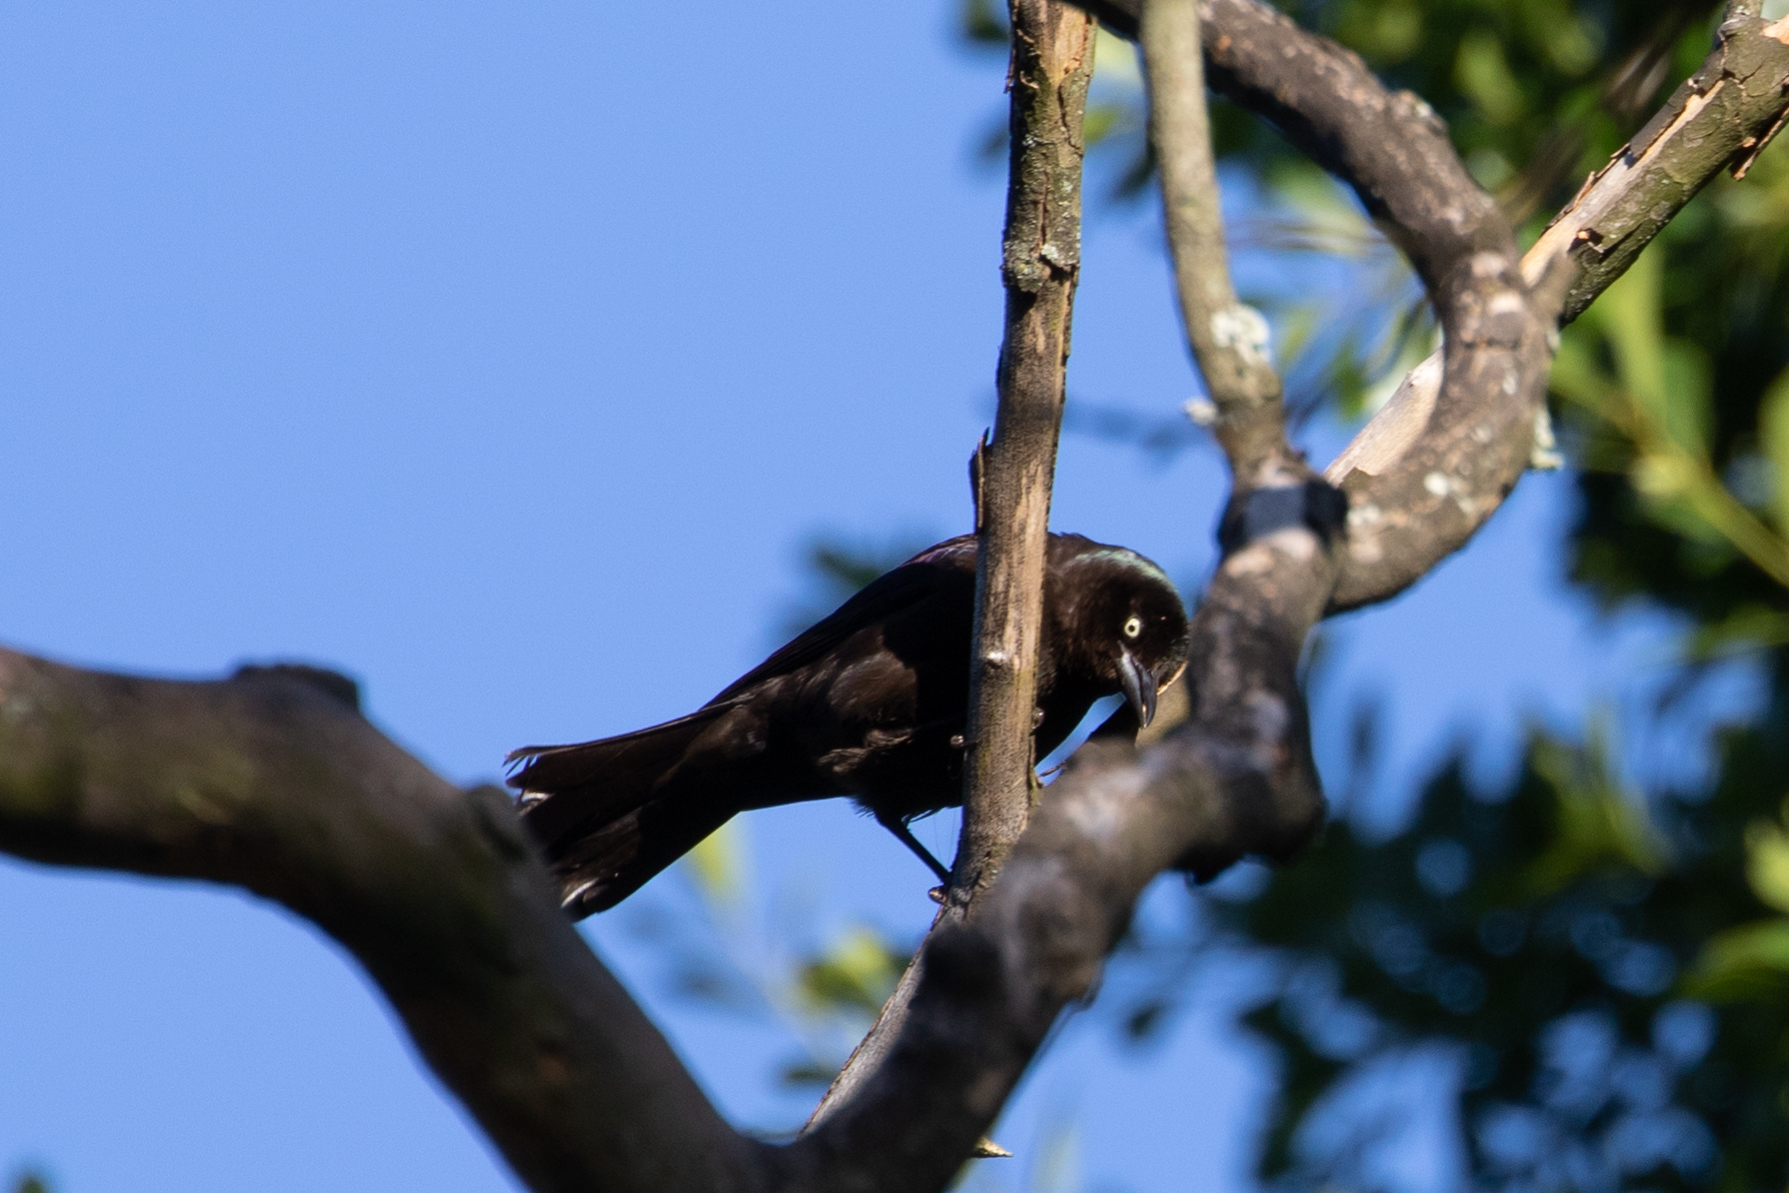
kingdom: Animalia
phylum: Chordata
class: Aves
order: Passeriformes
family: Icteridae
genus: Quiscalus
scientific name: Quiscalus quiscula
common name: Common grackle
